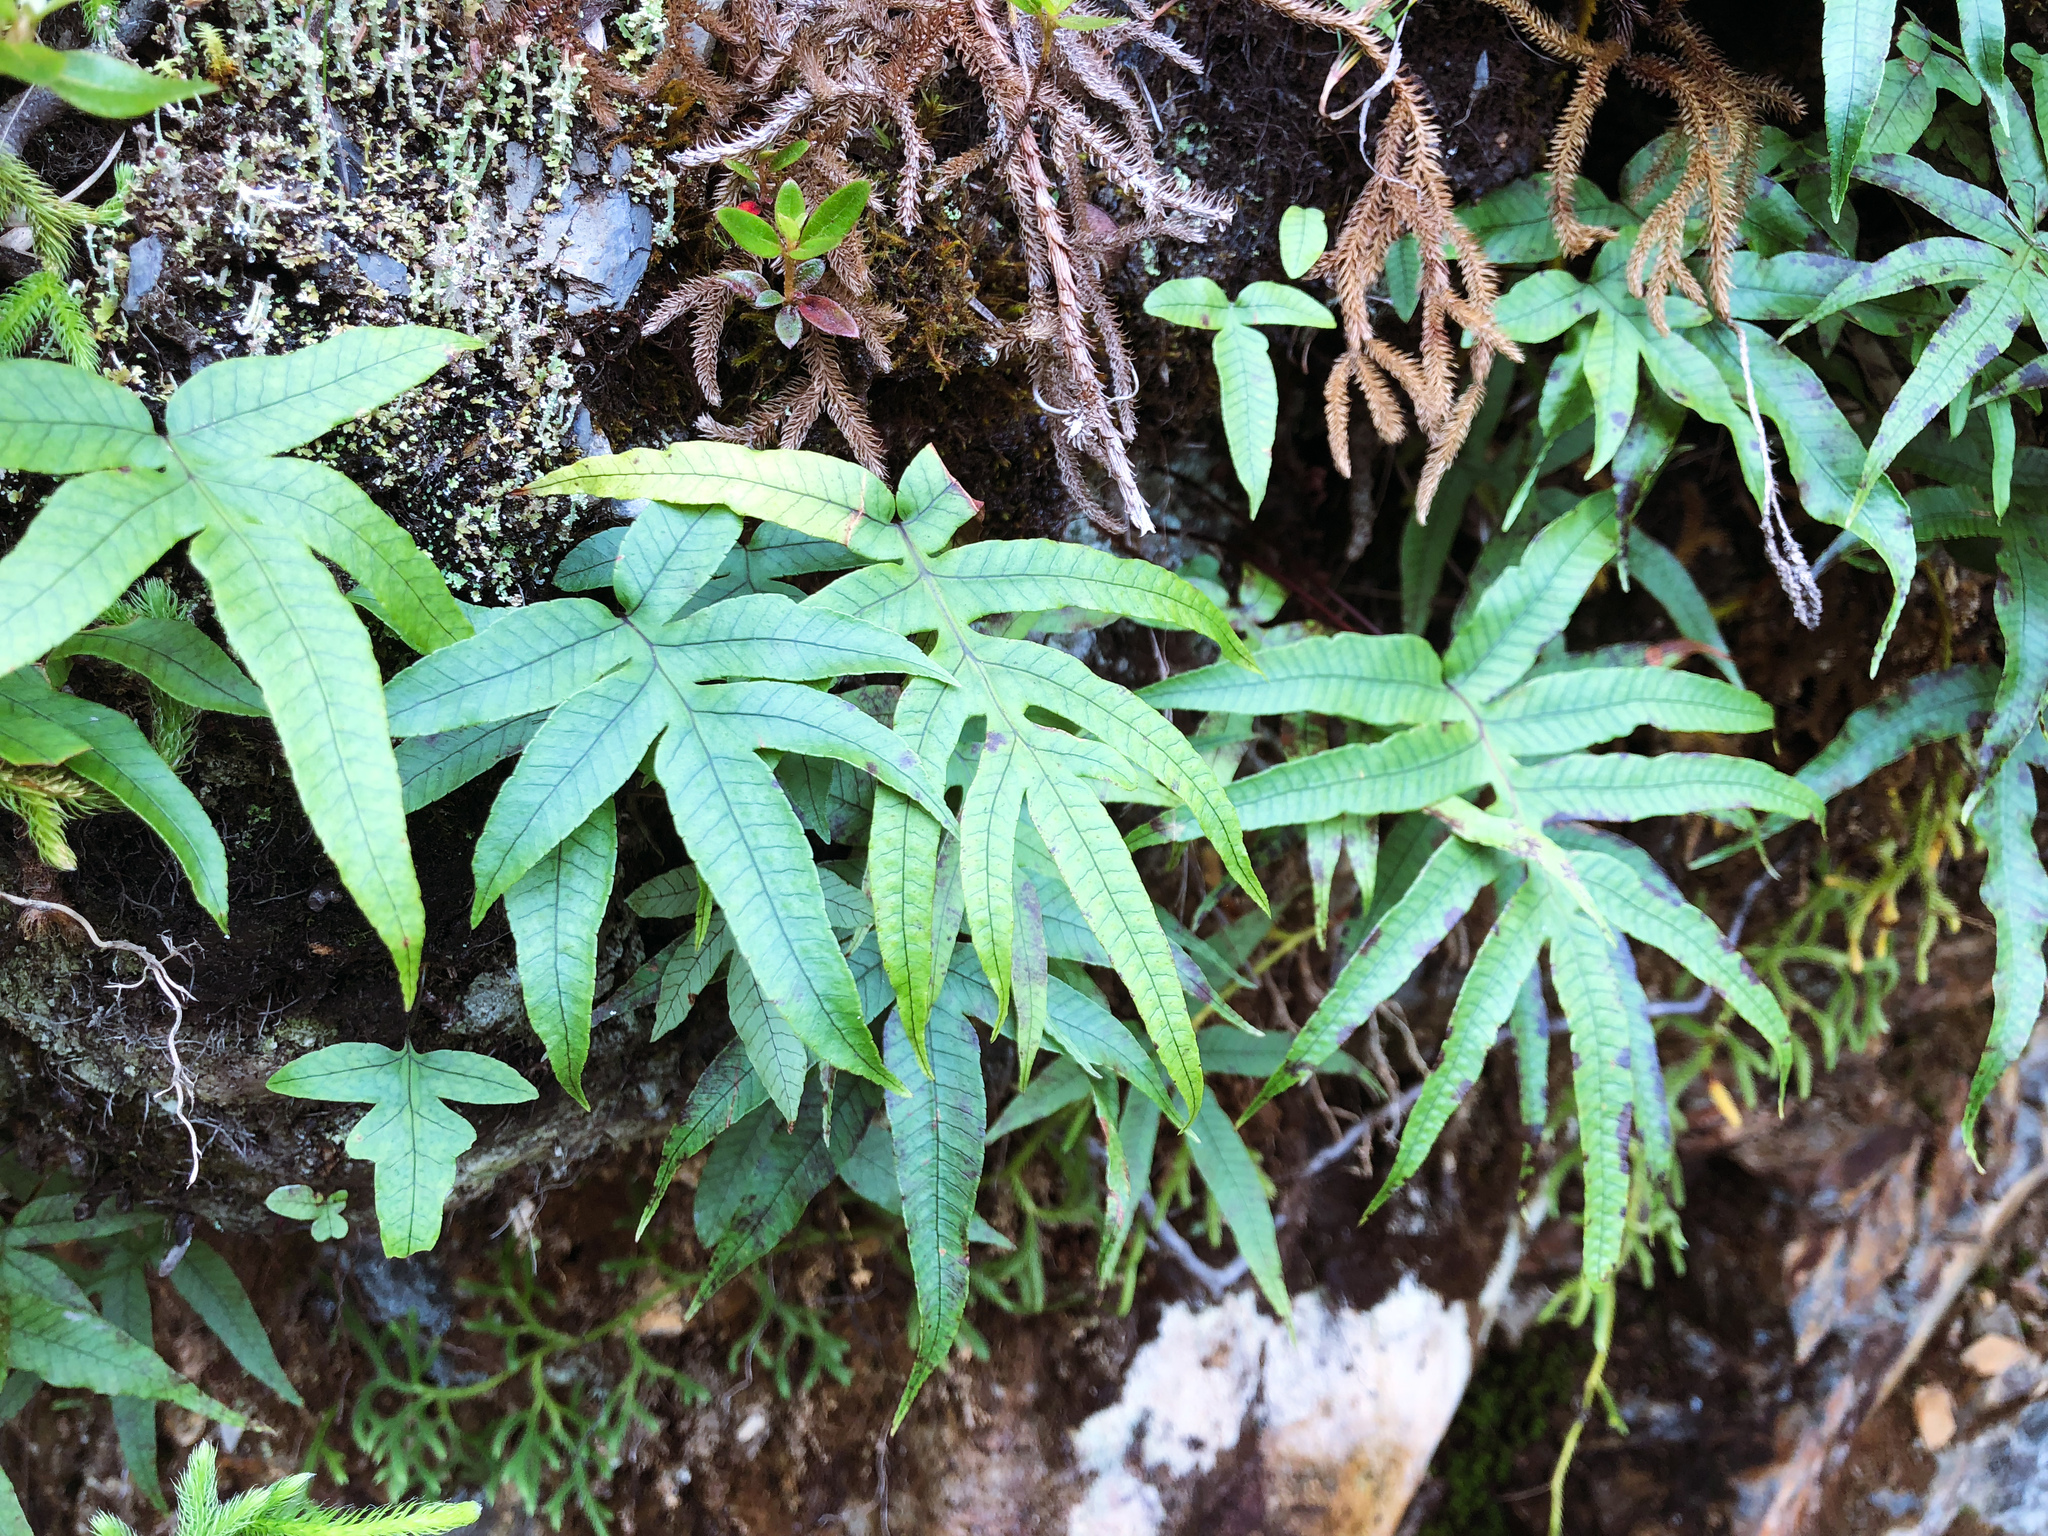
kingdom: Plantae
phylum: Tracheophyta
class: Polypodiopsida
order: Polypodiales
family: Polypodiaceae
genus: Selliguea
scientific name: Selliguea quasidivaricata
